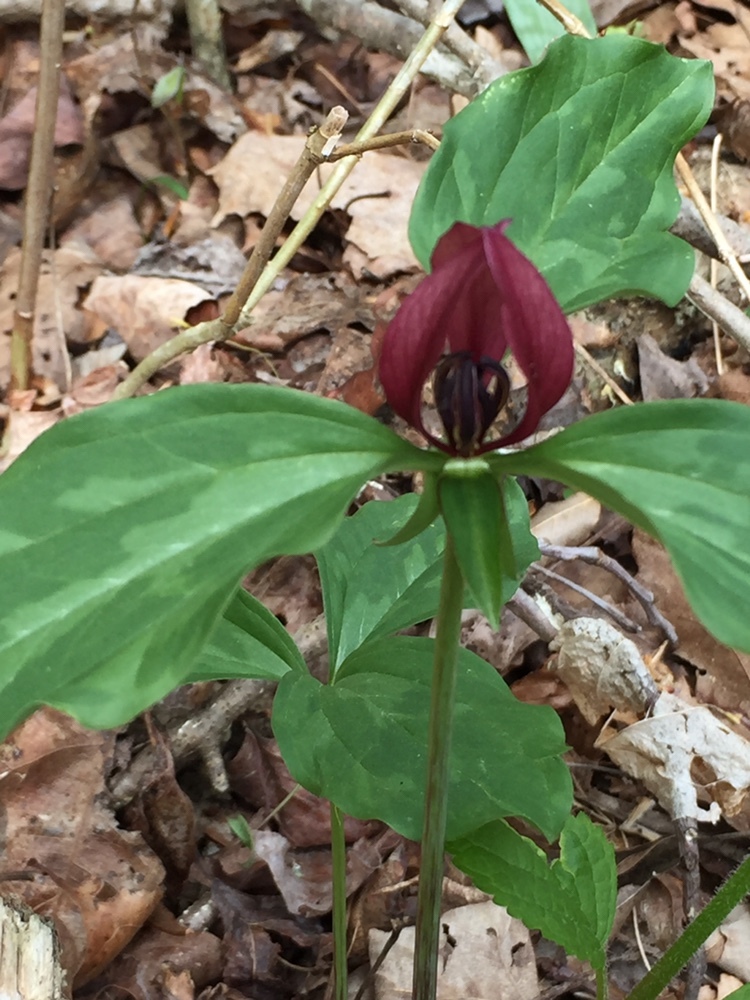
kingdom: Plantae
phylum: Tracheophyta
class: Liliopsida
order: Liliales
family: Melanthiaceae
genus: Trillium
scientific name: Trillium recurvatum
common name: Bloody butcher
